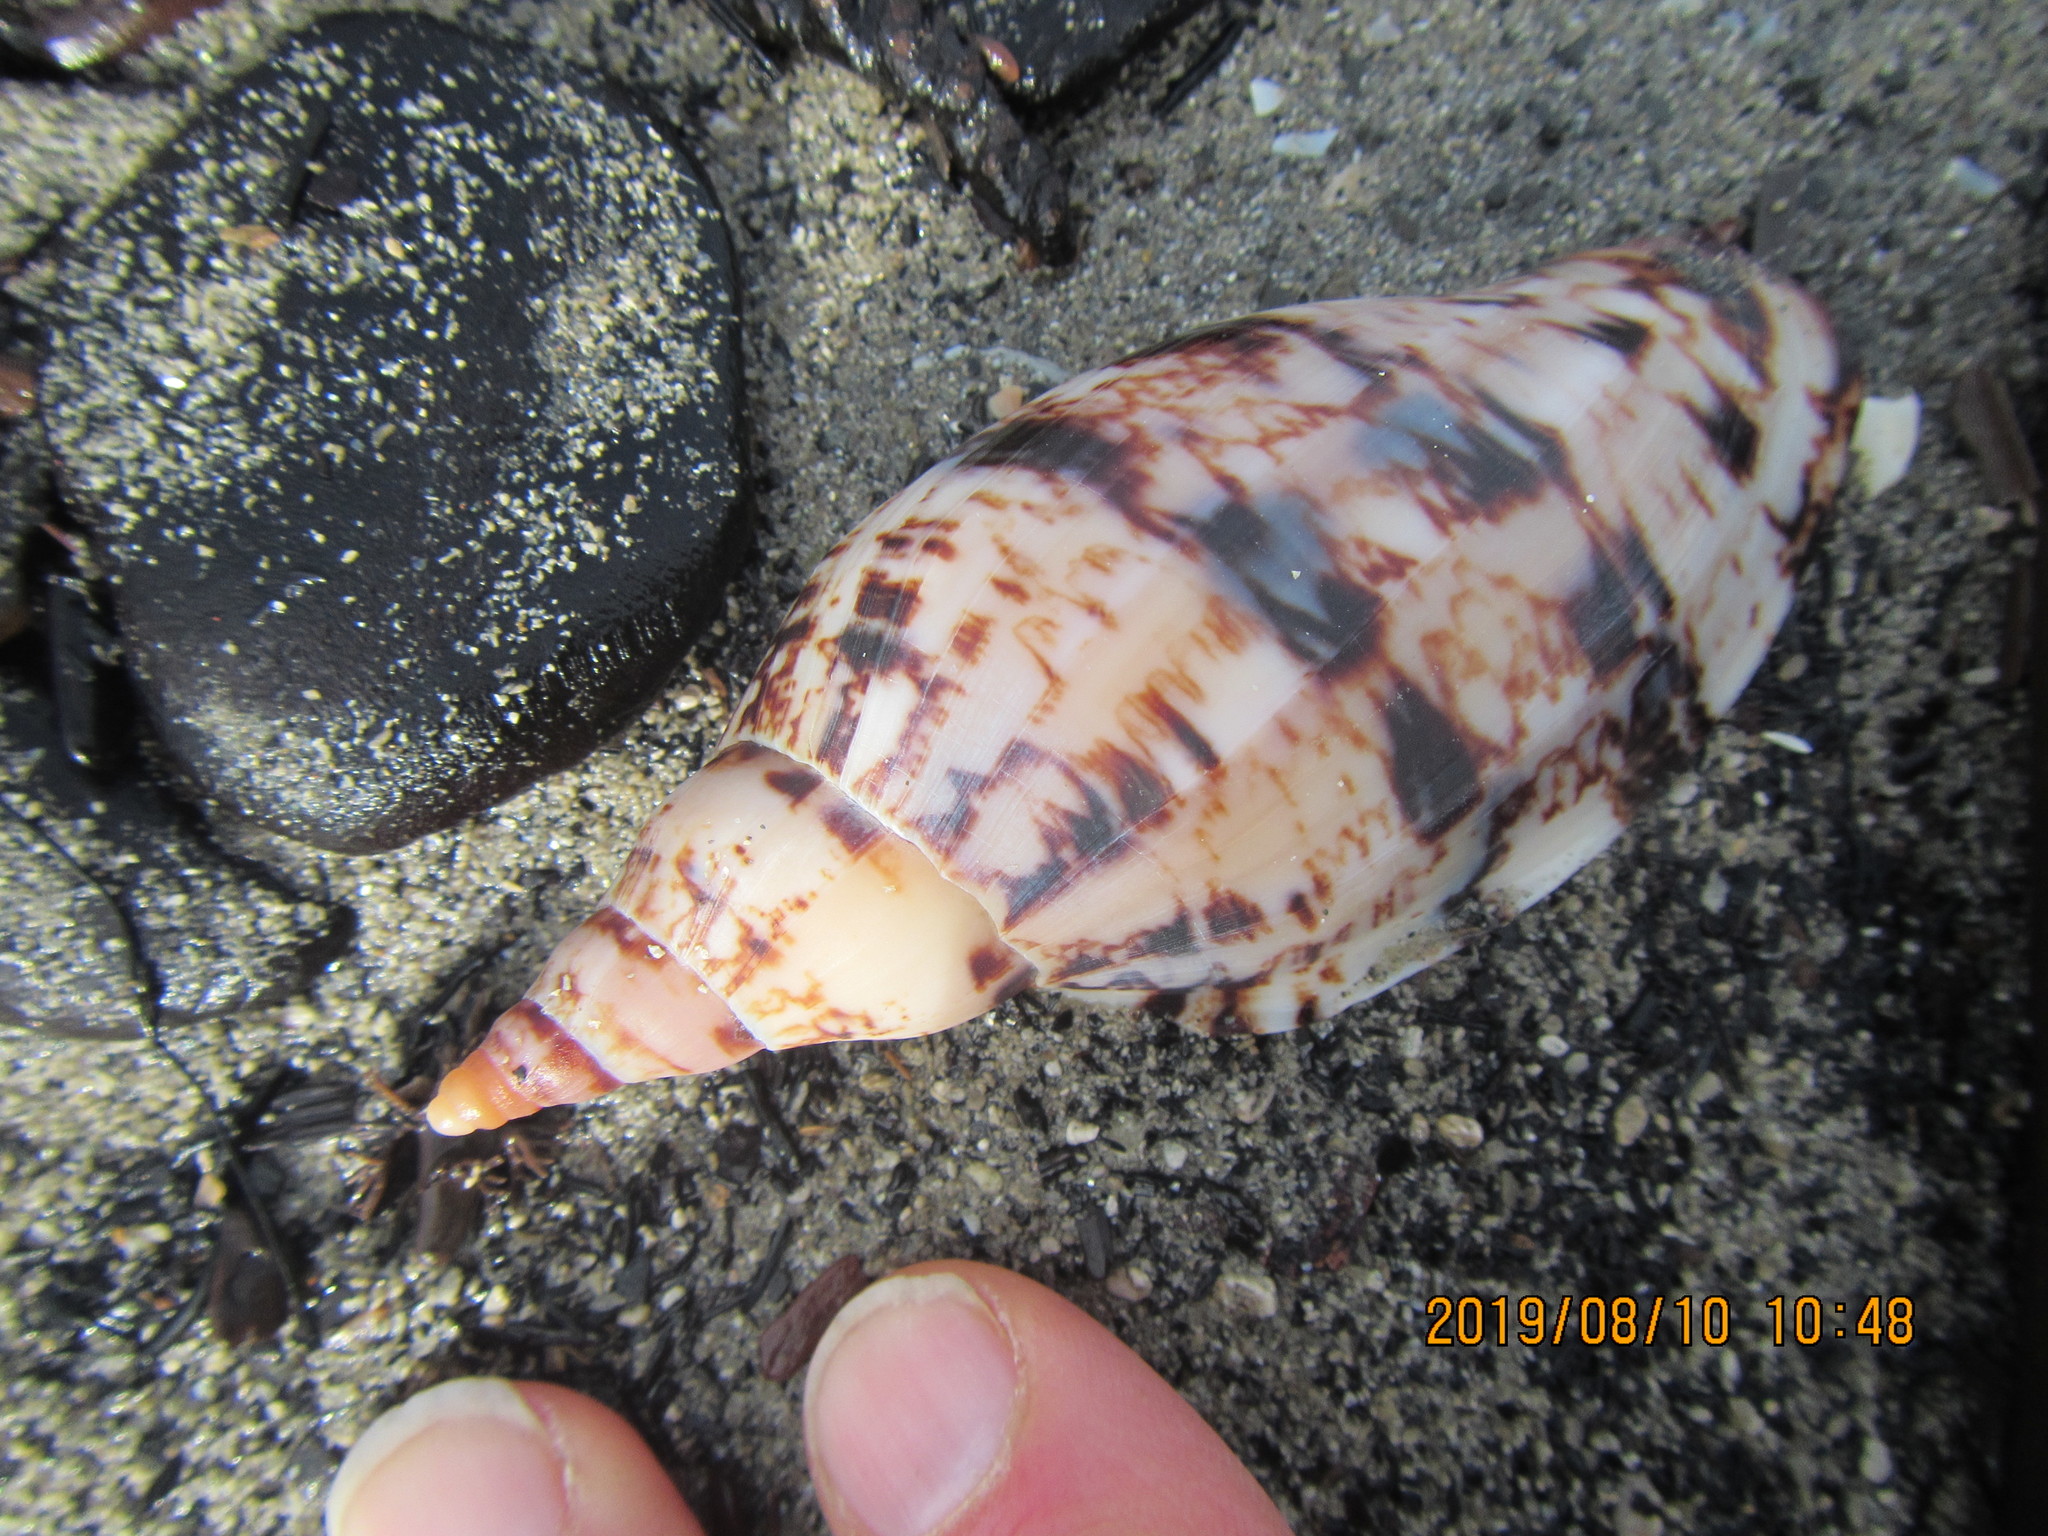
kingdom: Animalia
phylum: Mollusca
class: Gastropoda
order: Neogastropoda
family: Volutidae
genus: Alcithoe
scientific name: Alcithoe arabica
